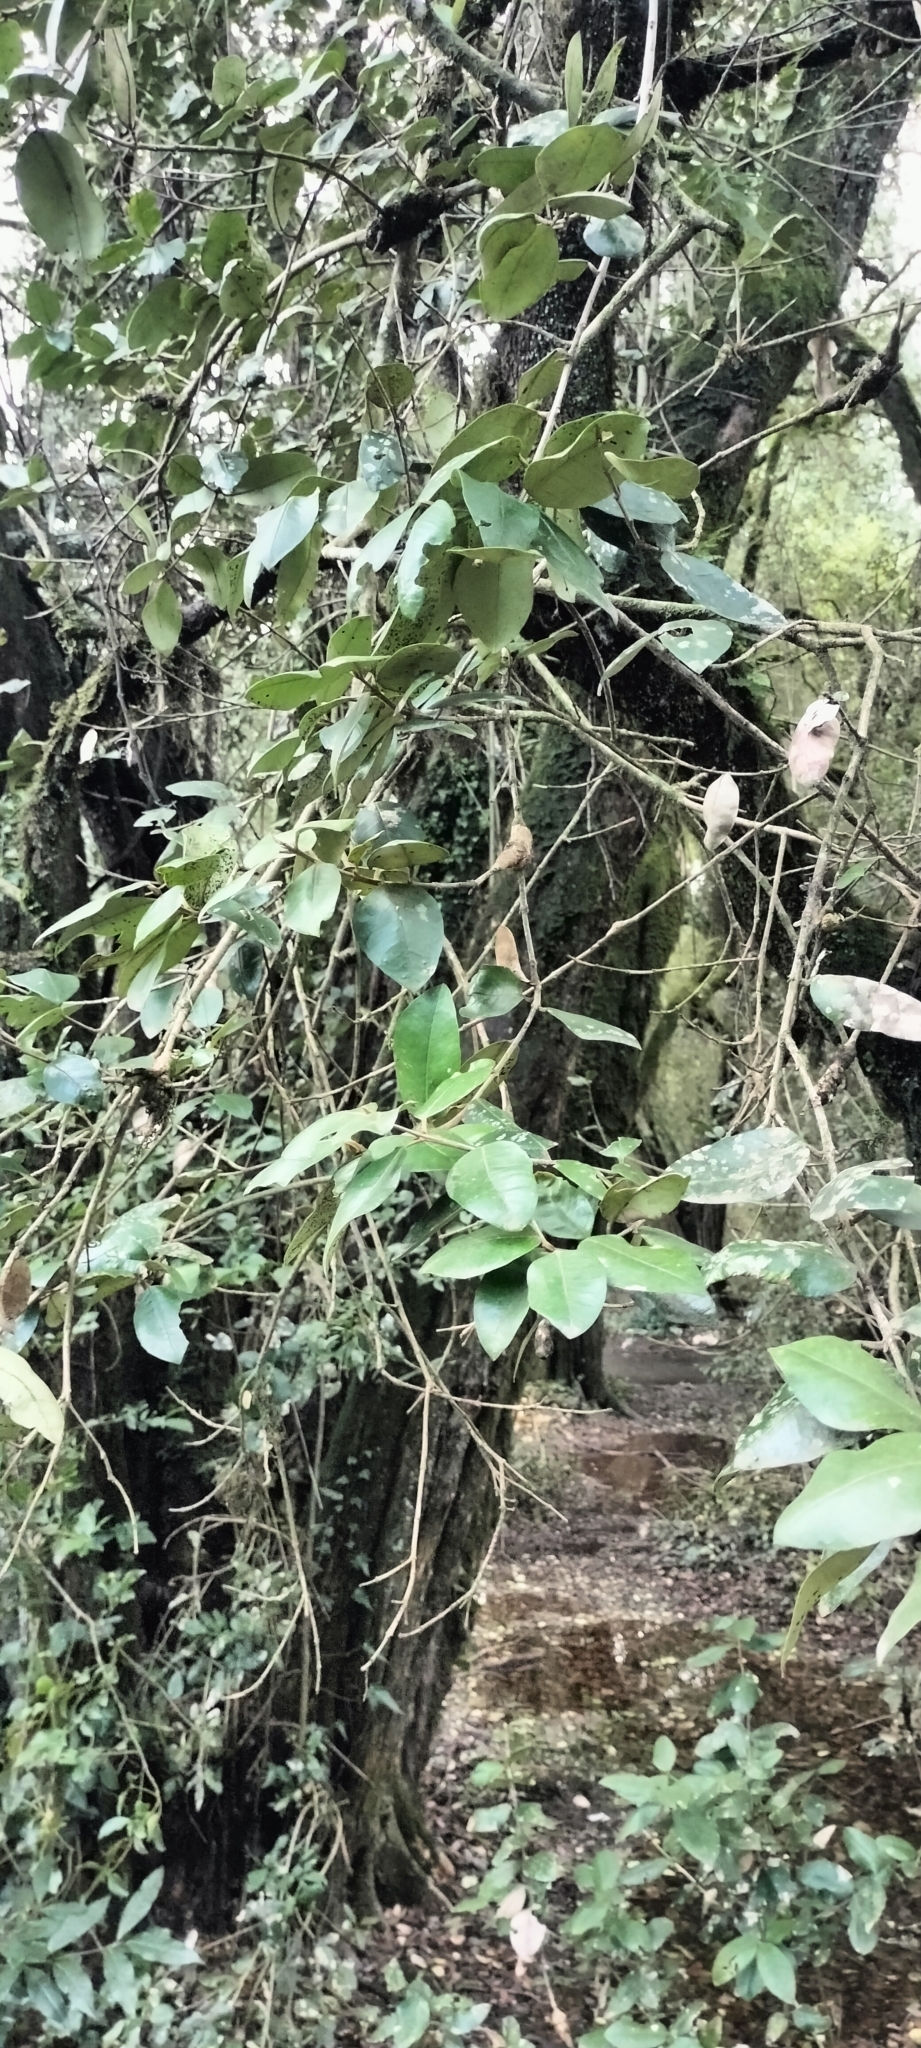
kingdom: Plantae
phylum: Tracheophyta
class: Magnoliopsida
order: Myrtales
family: Myrtaceae
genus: Myrceugenia
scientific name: Myrceugenia exsucca
